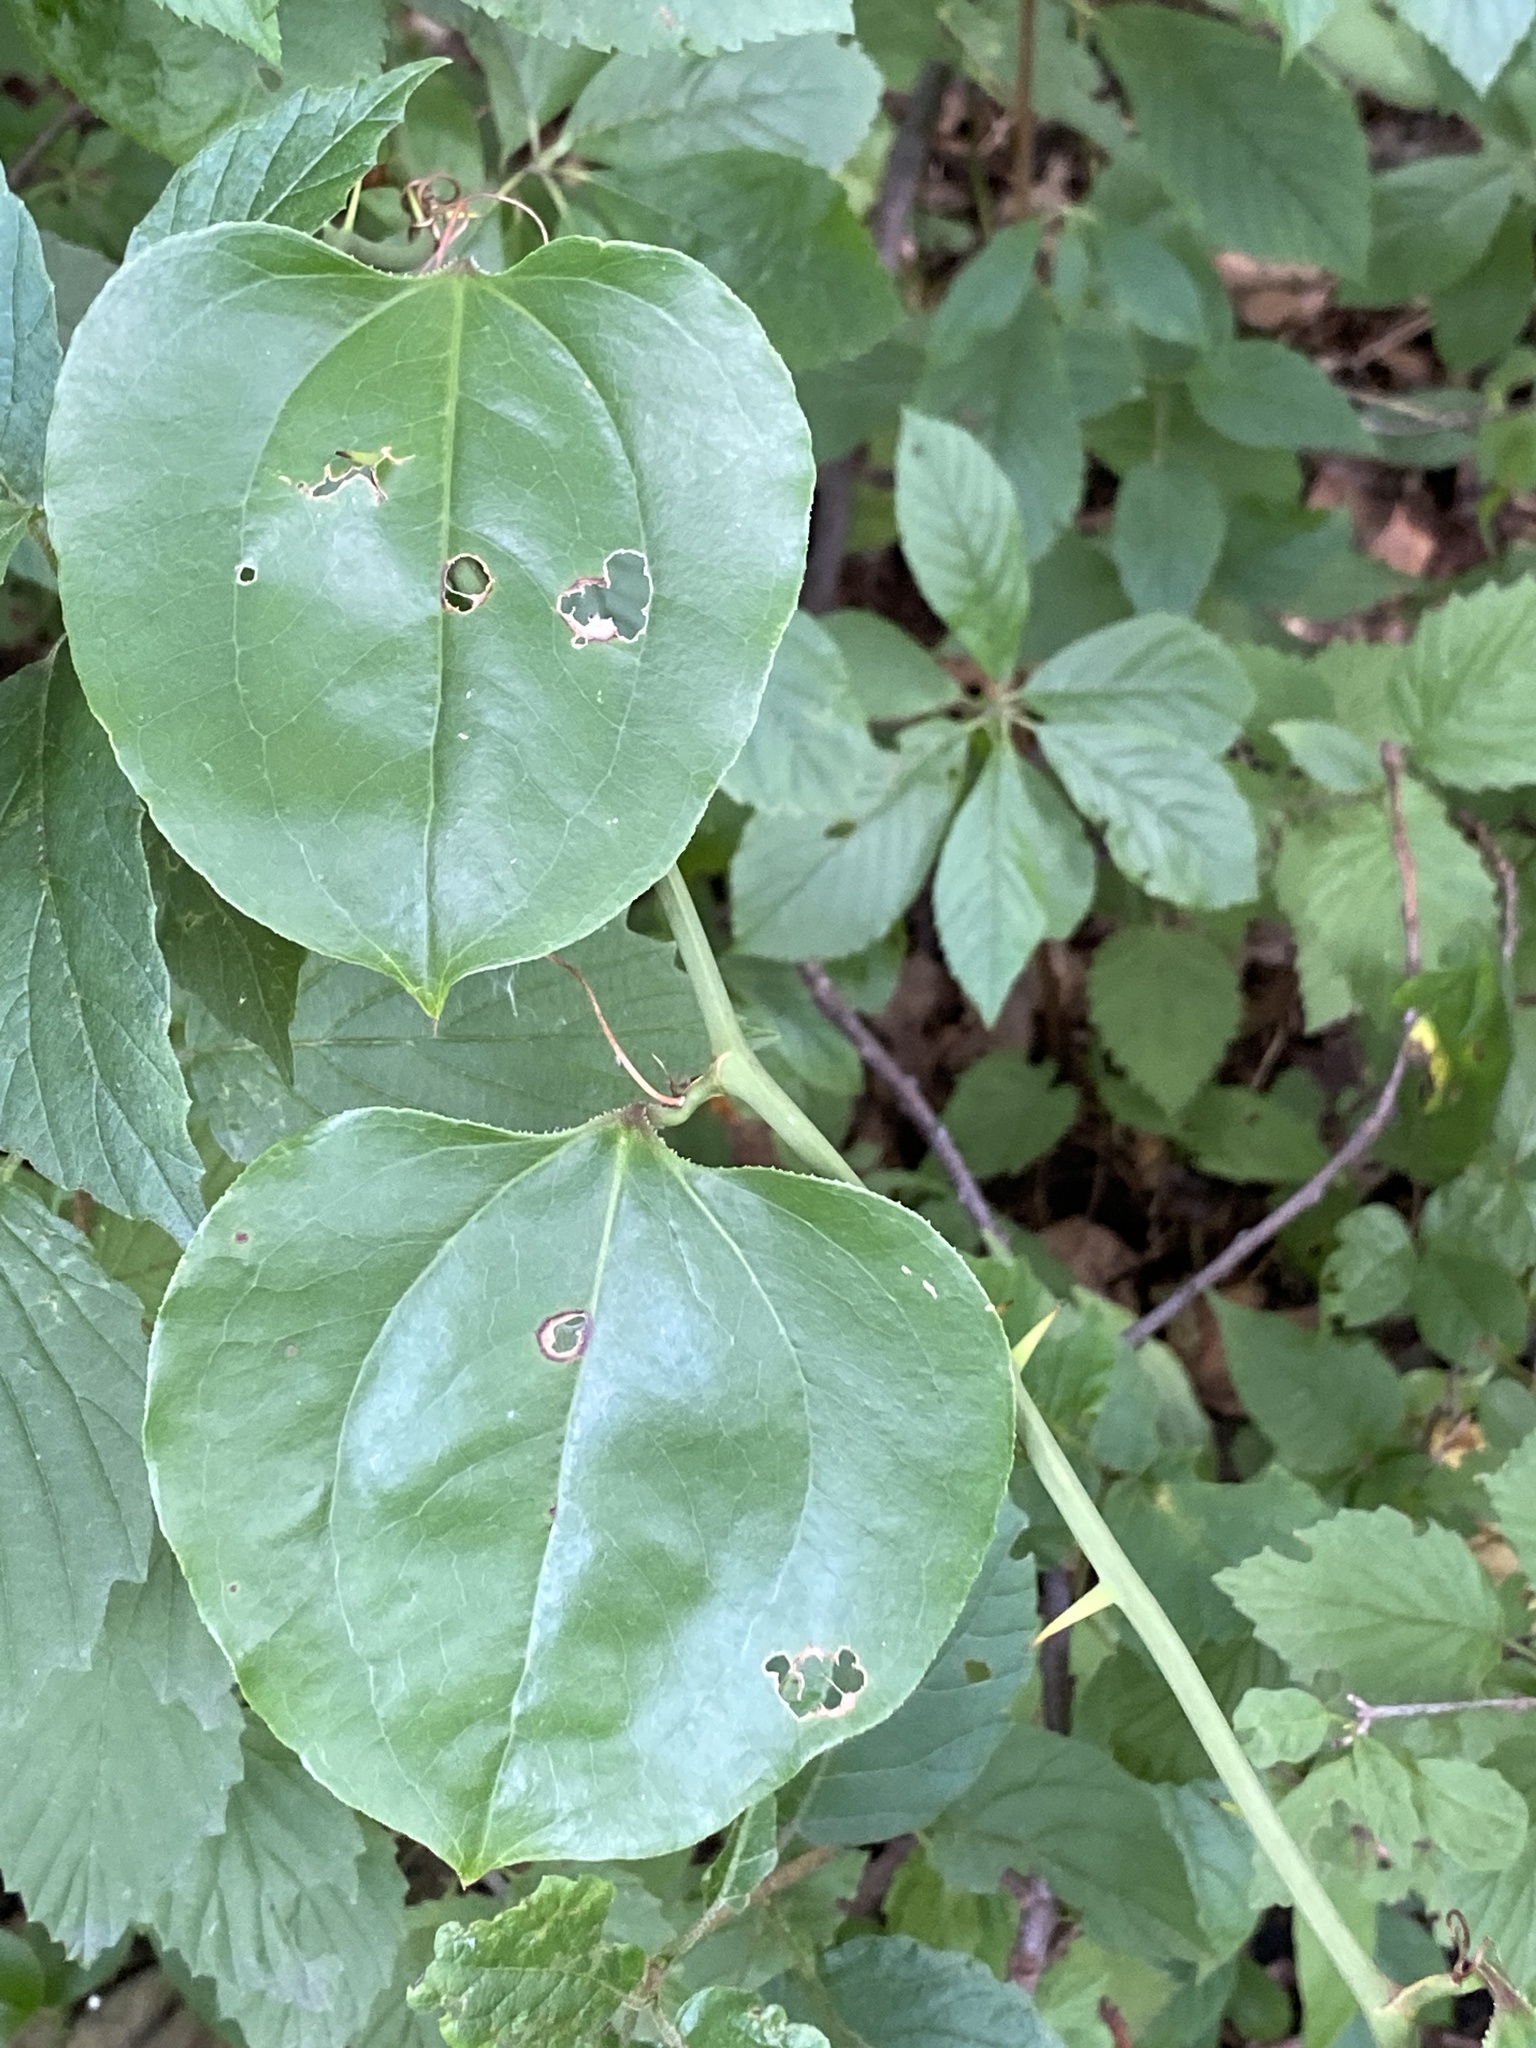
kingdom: Plantae
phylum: Tracheophyta
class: Liliopsida
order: Liliales
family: Smilacaceae
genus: Smilax
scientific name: Smilax rotundifolia
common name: Bullbriar
